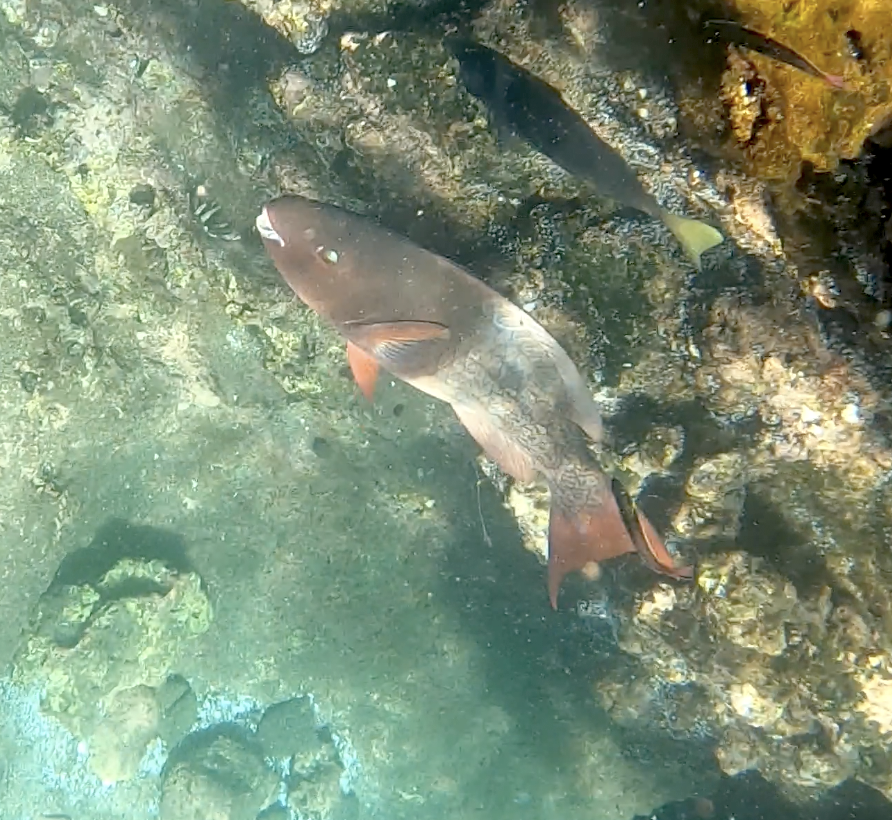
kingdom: Animalia
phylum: Chordata
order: Perciformes
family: Scaridae
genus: Scarus
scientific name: Scarus rubroviolaceus
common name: Ember parrotfish
